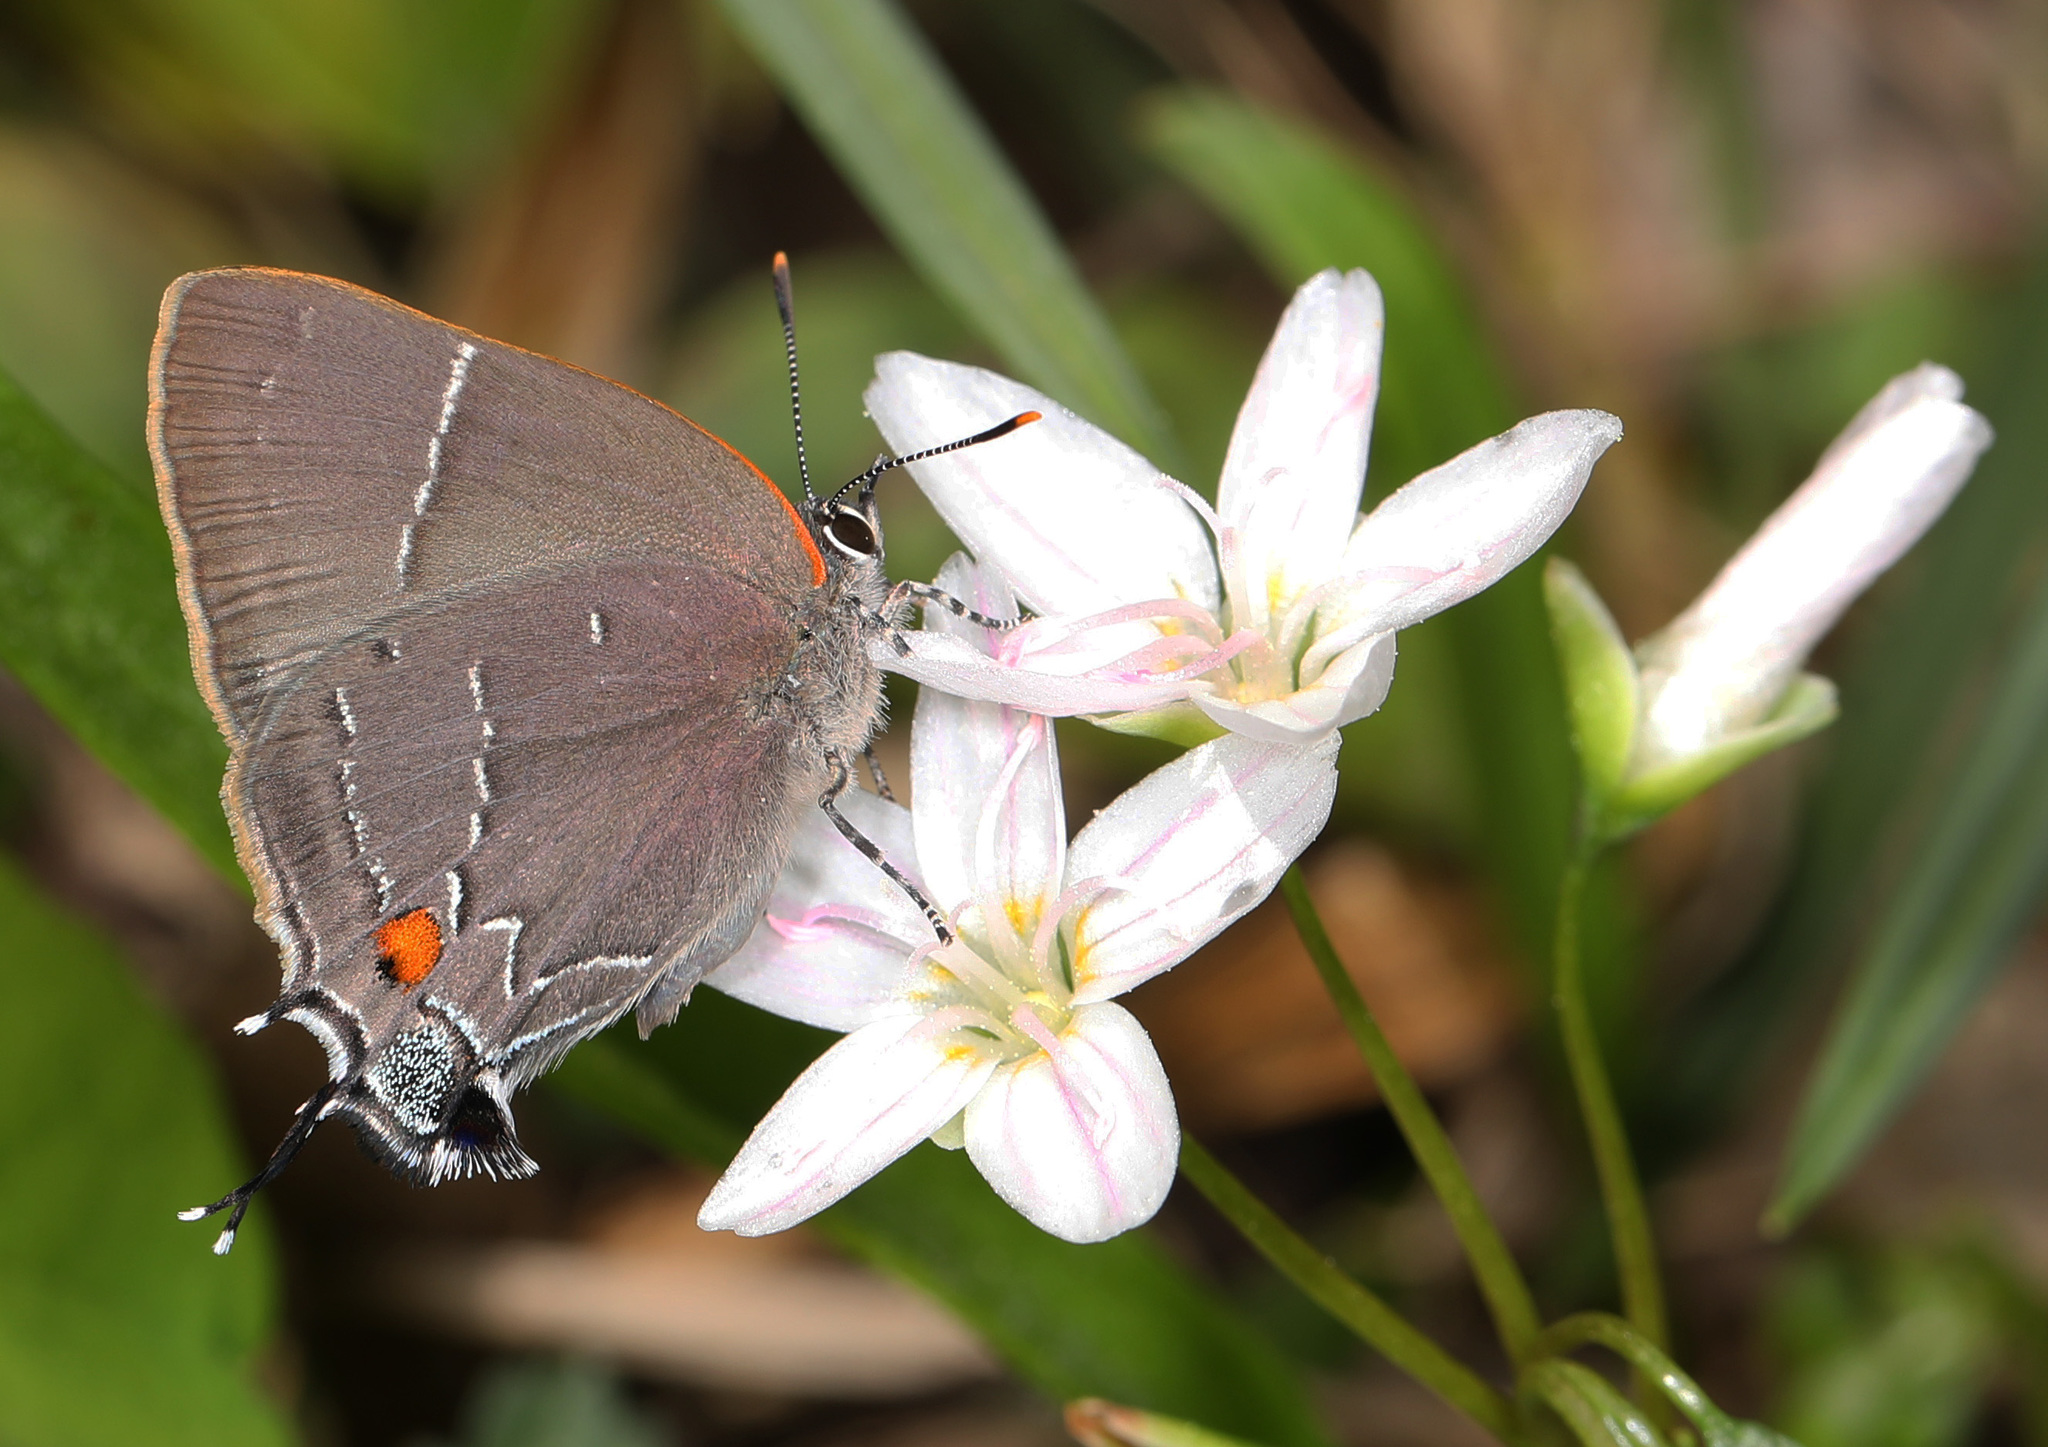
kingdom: Animalia
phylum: Arthropoda
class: Insecta
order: Lepidoptera
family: Lycaenidae
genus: Parrhasius
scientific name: Parrhasius m-album
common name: White m hairstreak
